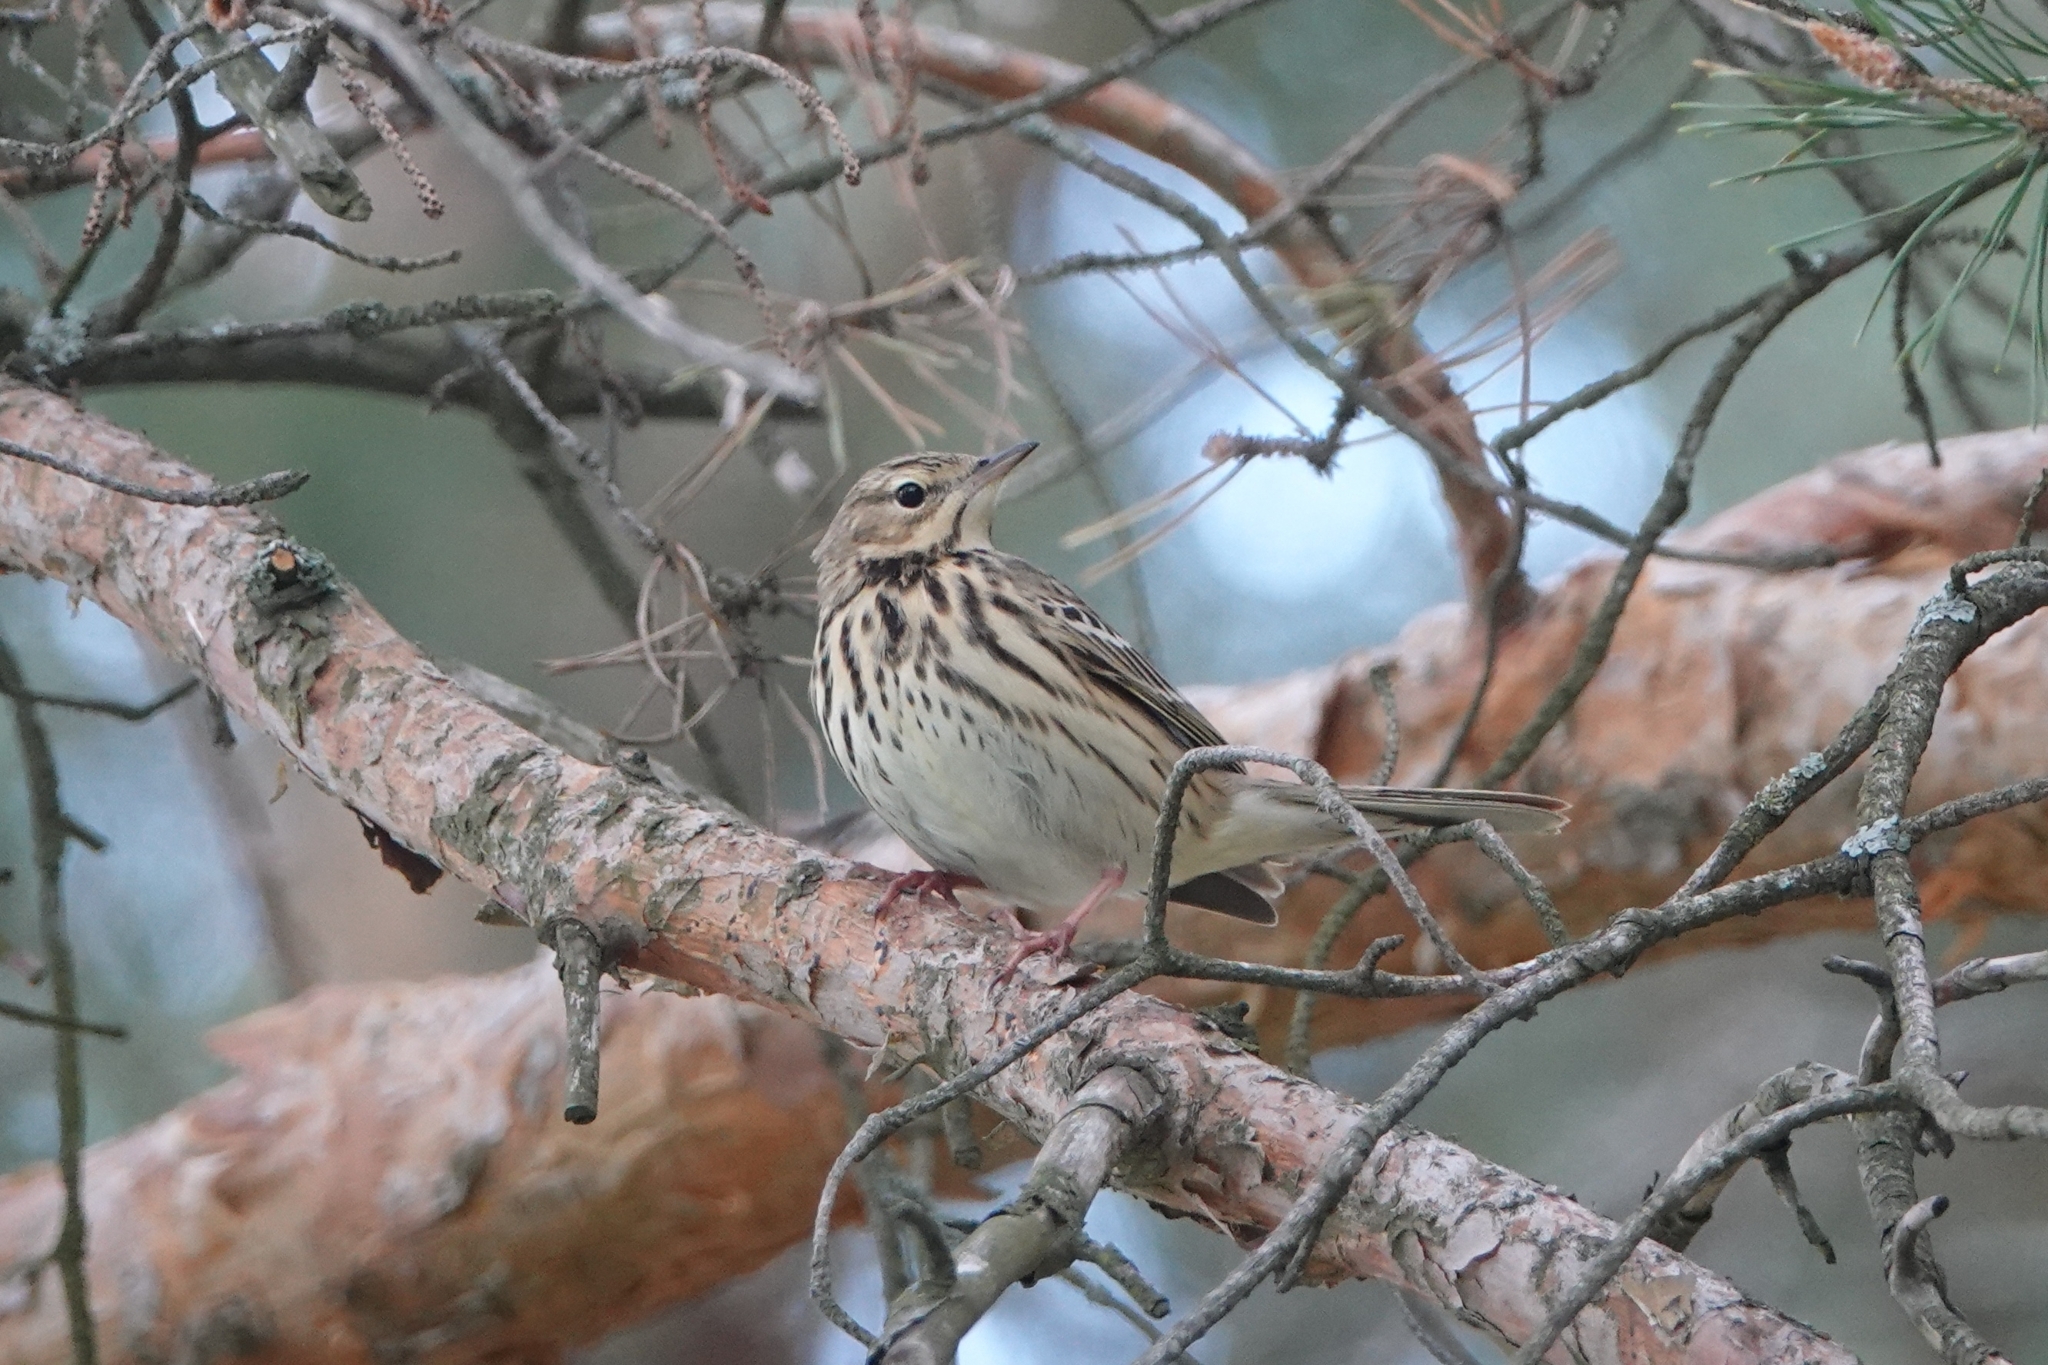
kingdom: Animalia
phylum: Chordata
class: Aves
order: Passeriformes
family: Motacillidae
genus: Anthus
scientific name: Anthus trivialis
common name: Tree pipit
